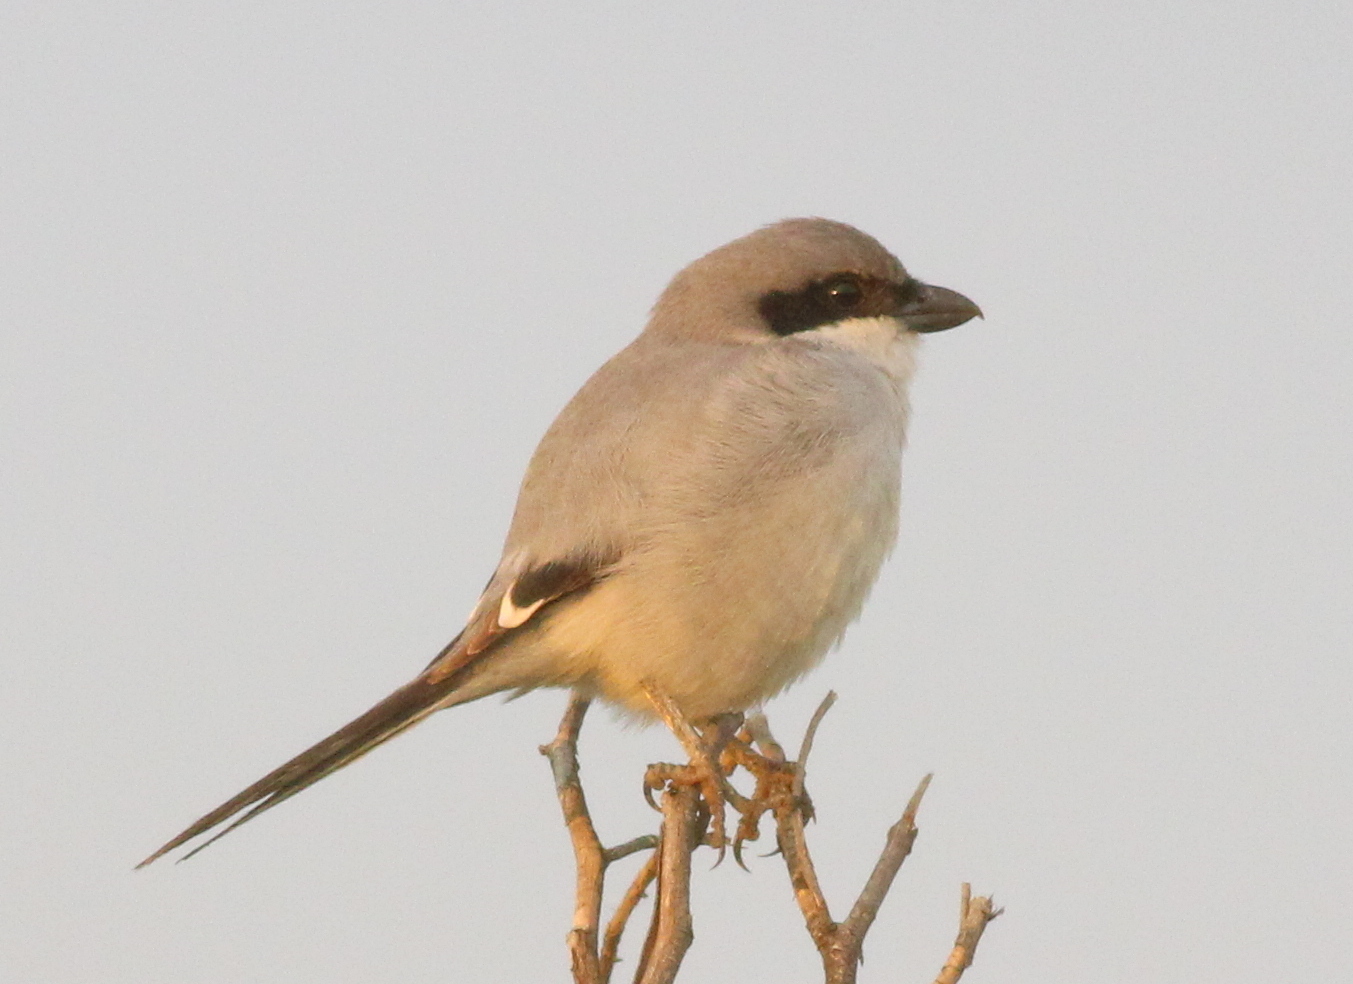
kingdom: Animalia
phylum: Chordata
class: Aves
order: Passeriformes
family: Laniidae
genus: Lanius
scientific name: Lanius excubitor
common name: Great grey shrike
